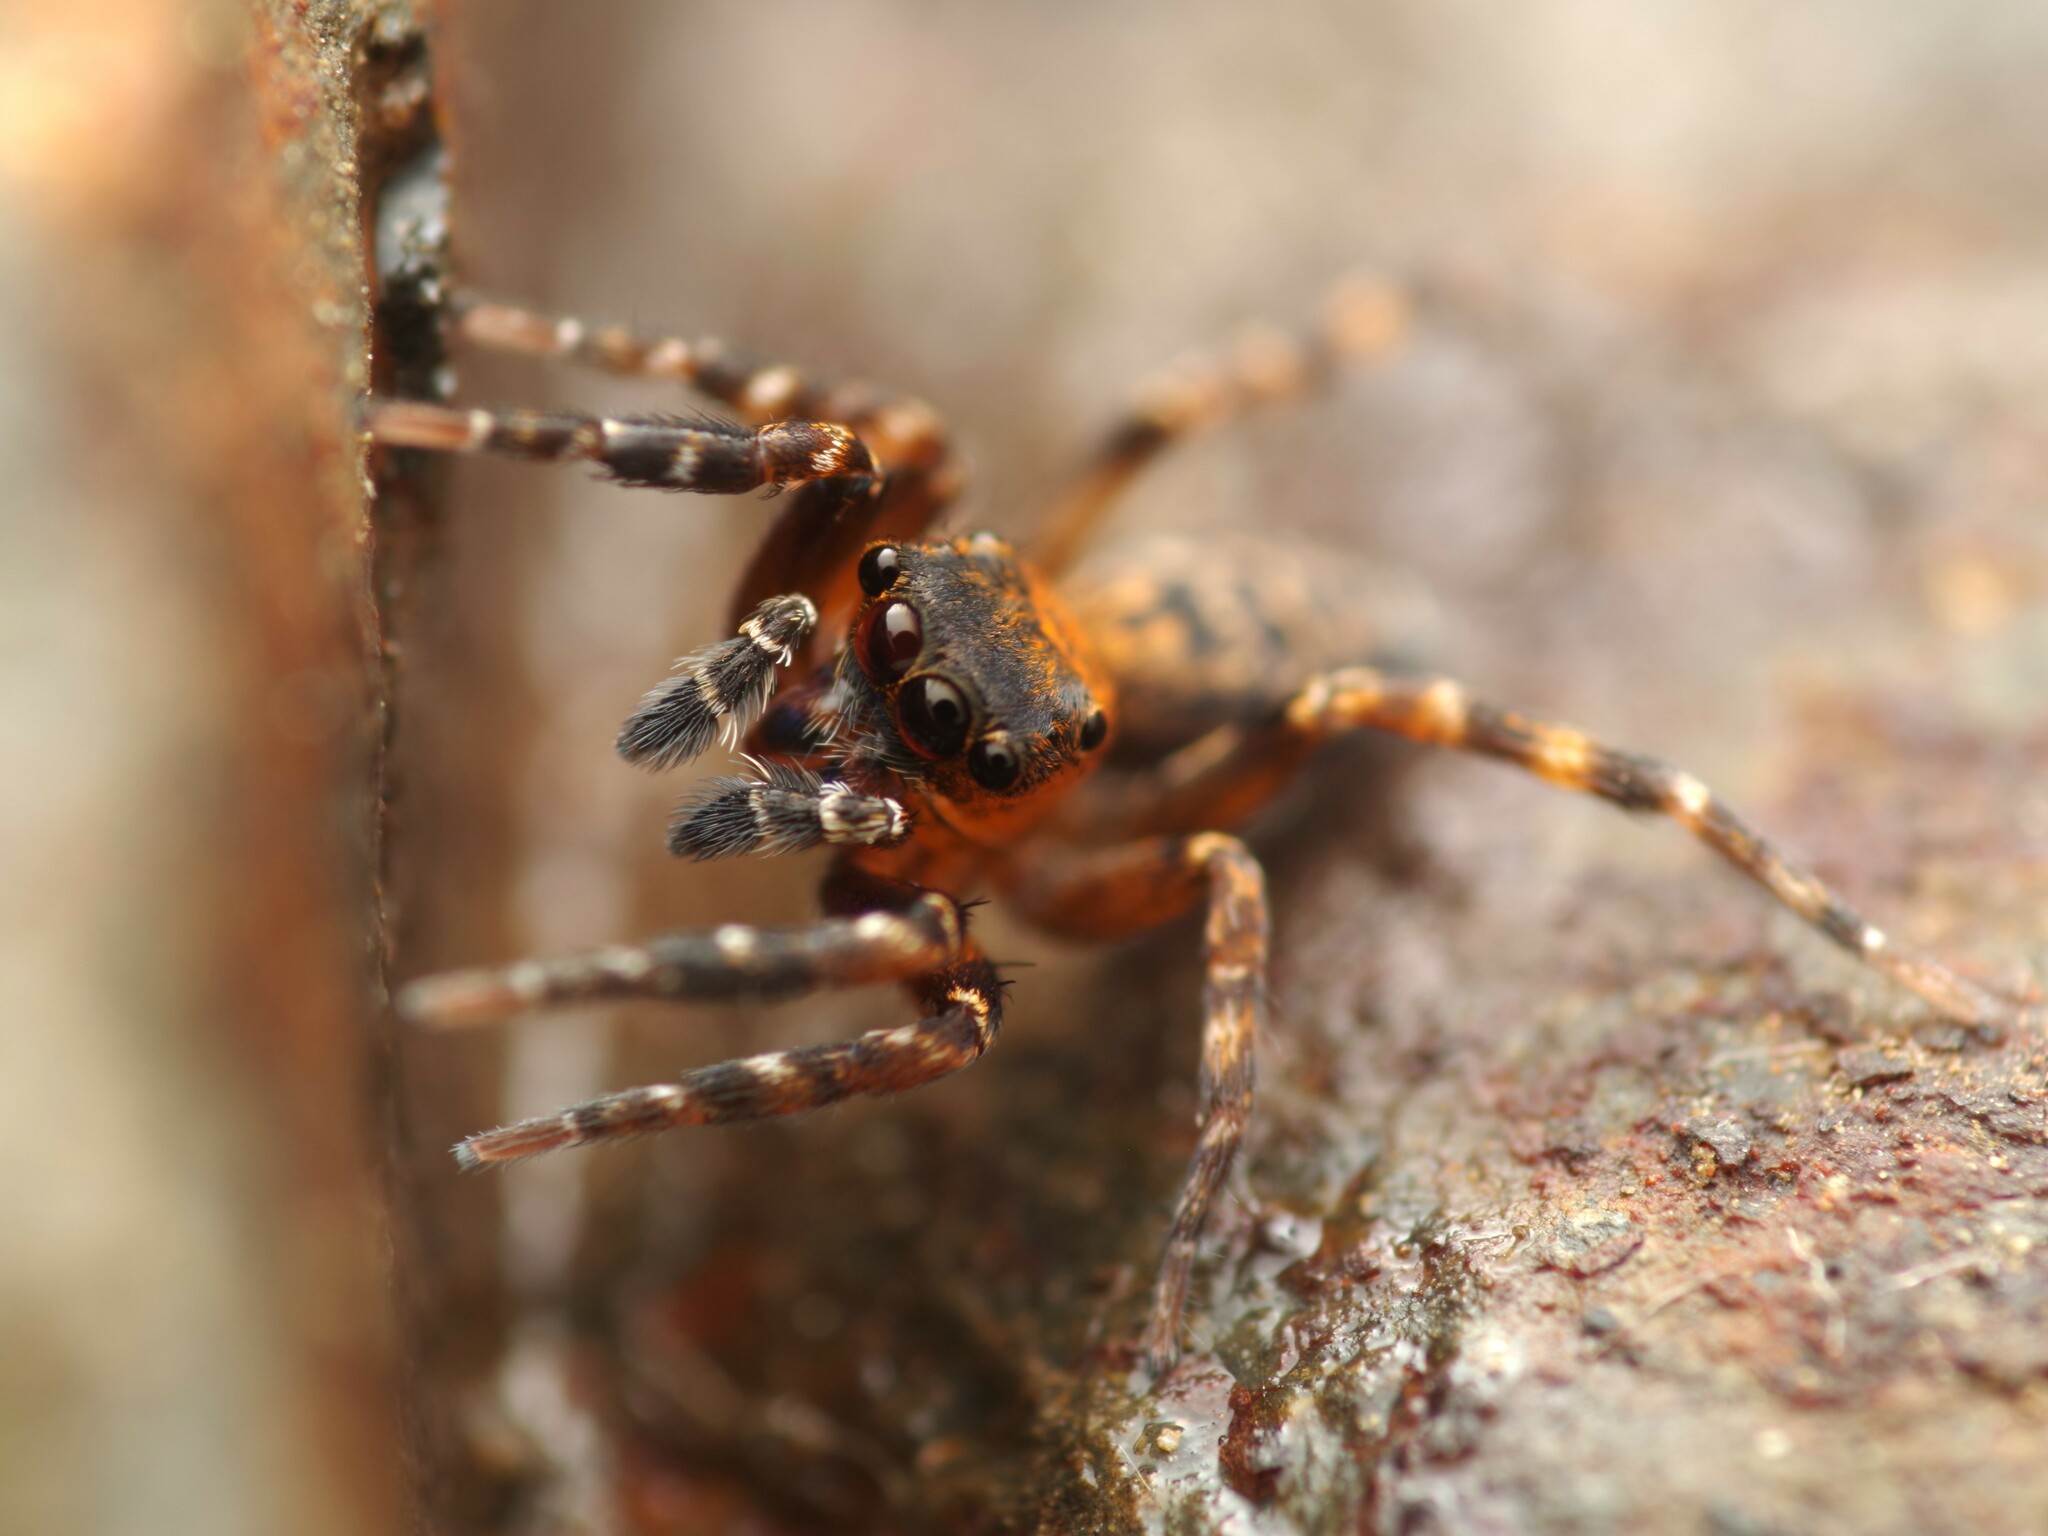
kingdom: Animalia
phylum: Arthropoda
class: Arachnida
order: Araneae
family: Salticidae
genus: Cyrba
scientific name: Cyrba algerina
